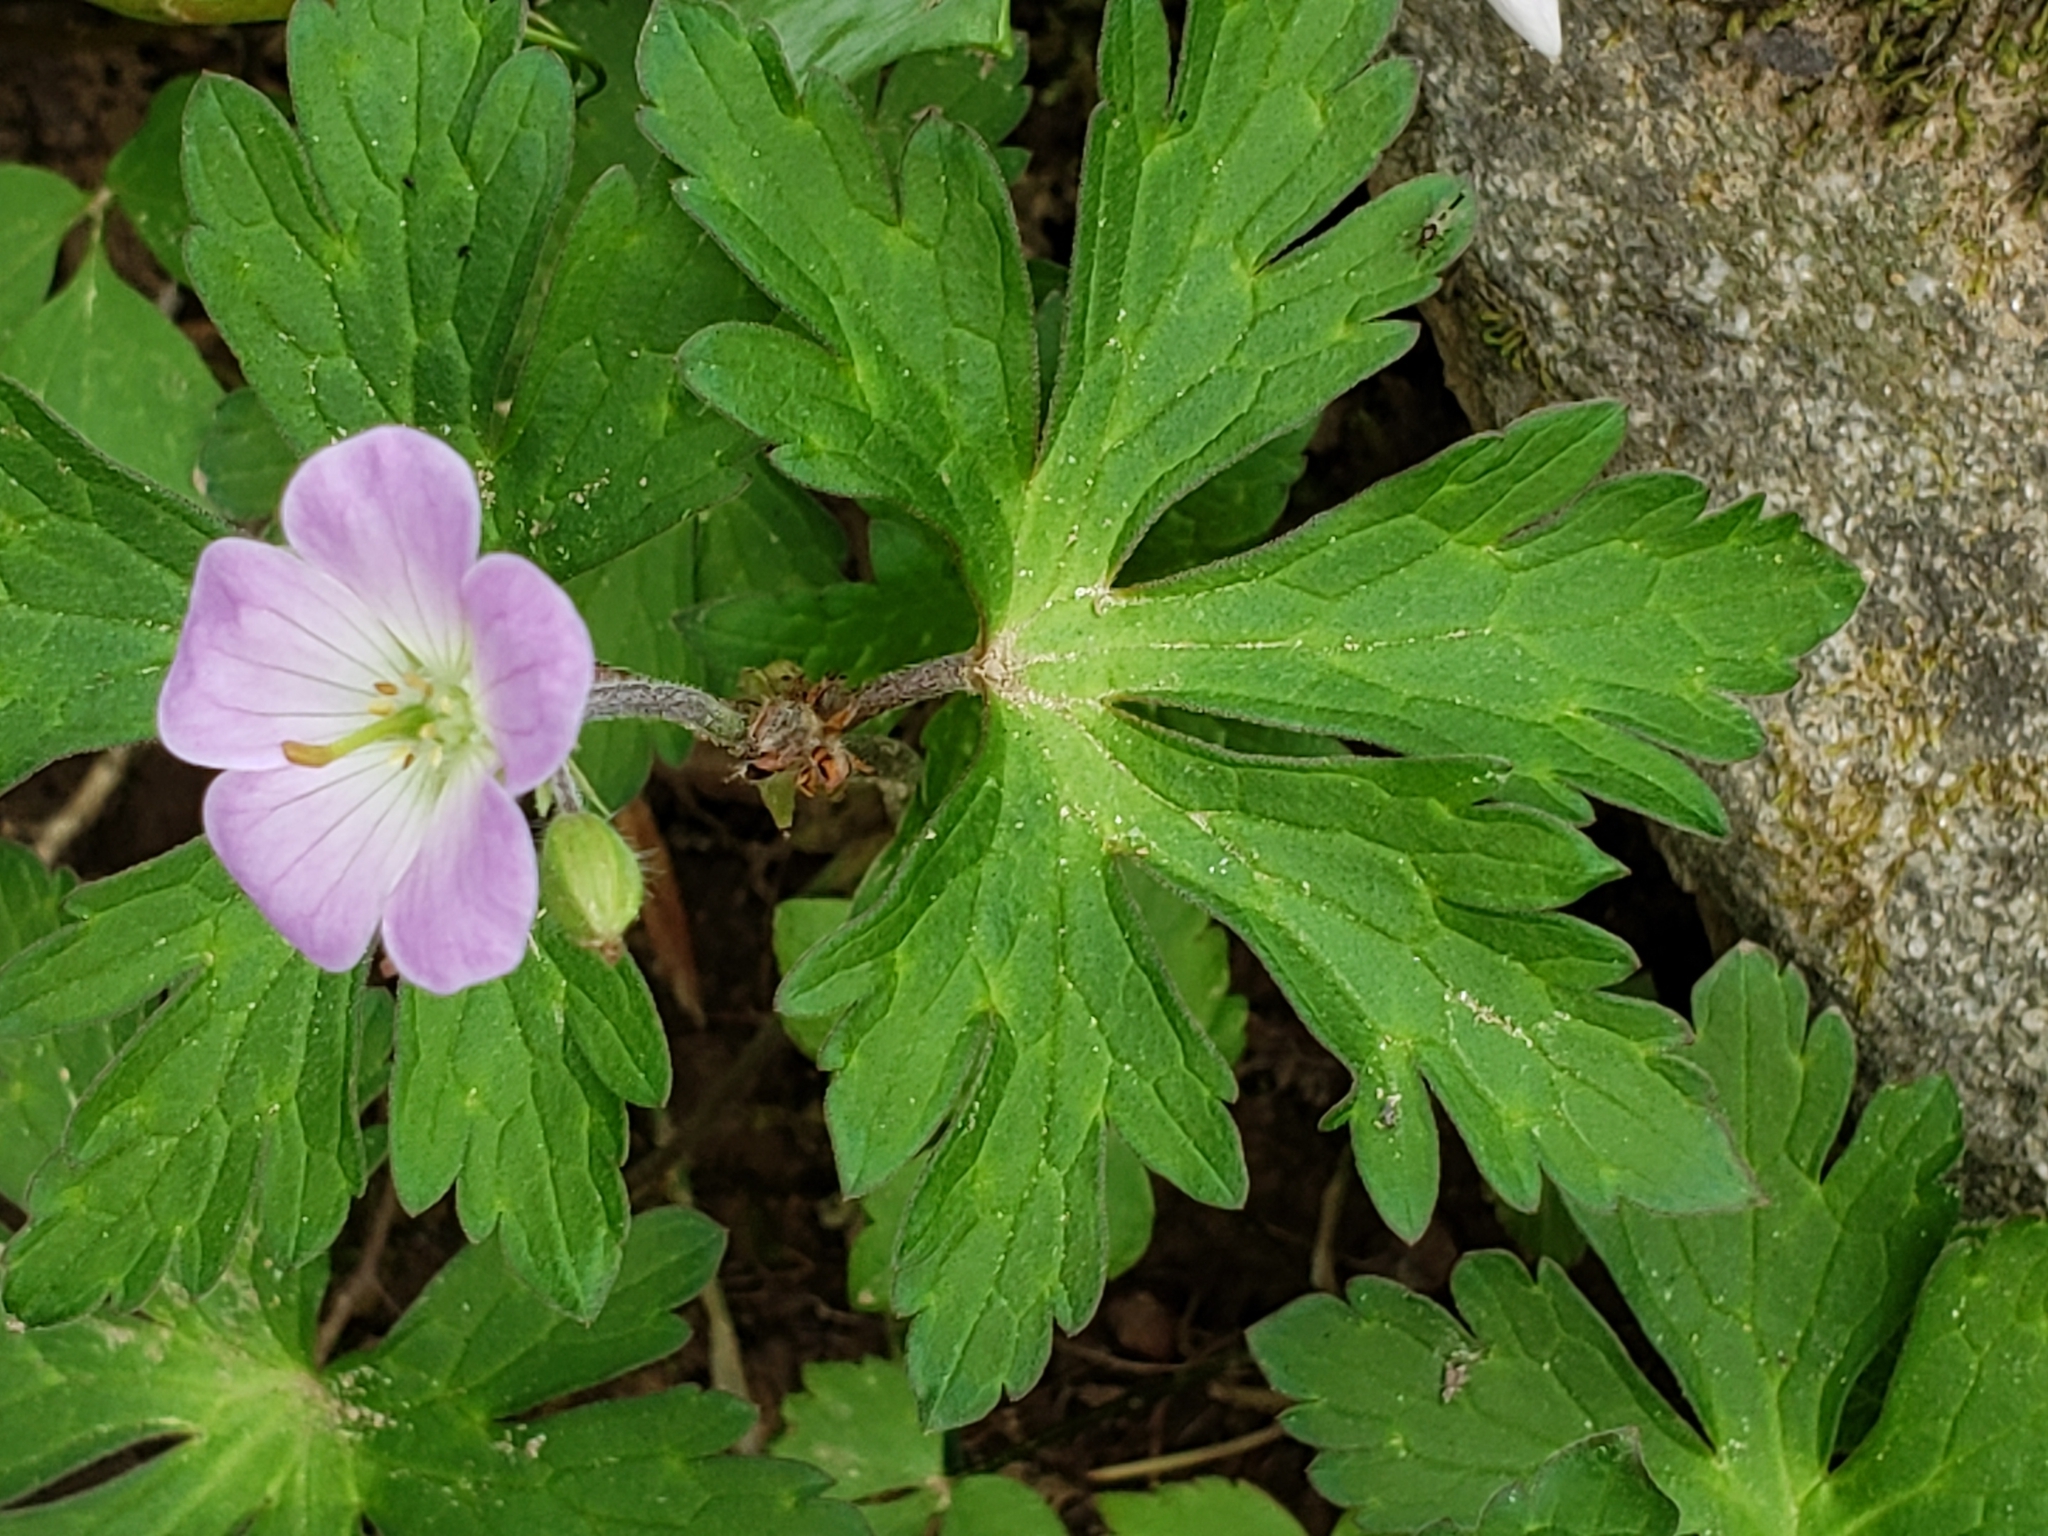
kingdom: Plantae
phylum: Tracheophyta
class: Magnoliopsida
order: Geraniales
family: Geraniaceae
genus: Geranium
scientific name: Geranium maculatum
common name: Spotted geranium
